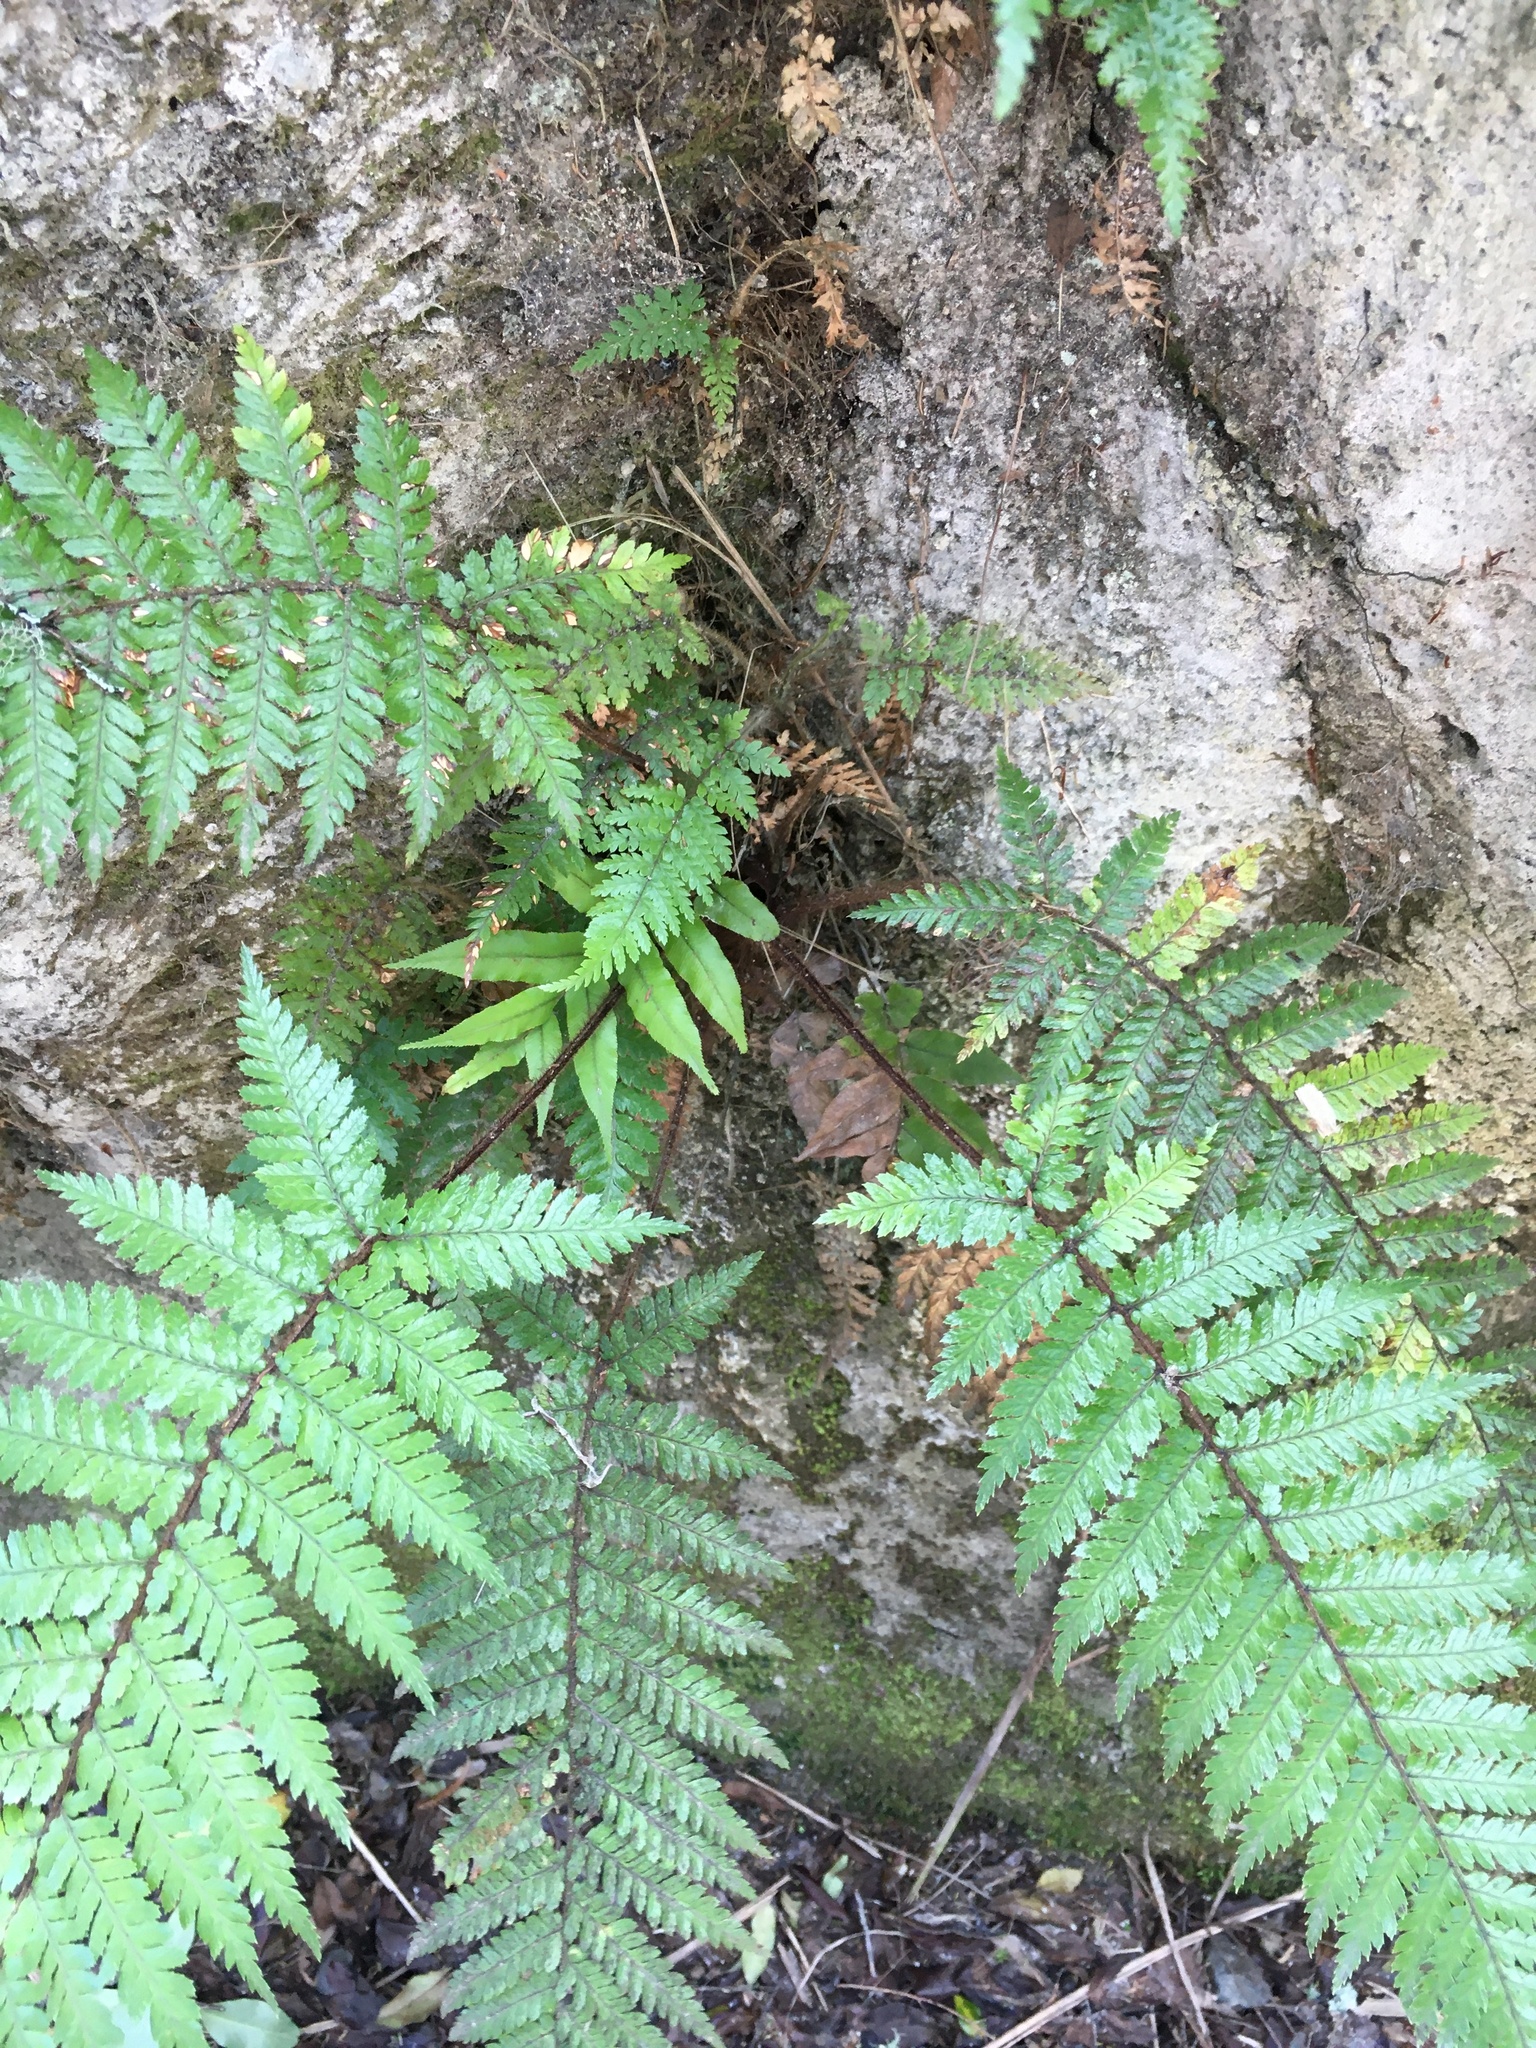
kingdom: Plantae
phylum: Tracheophyta
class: Polypodiopsida
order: Cyatheales
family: Dicksoniaceae
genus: Dicksonia
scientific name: Dicksonia squarrosa
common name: Hard treefern
